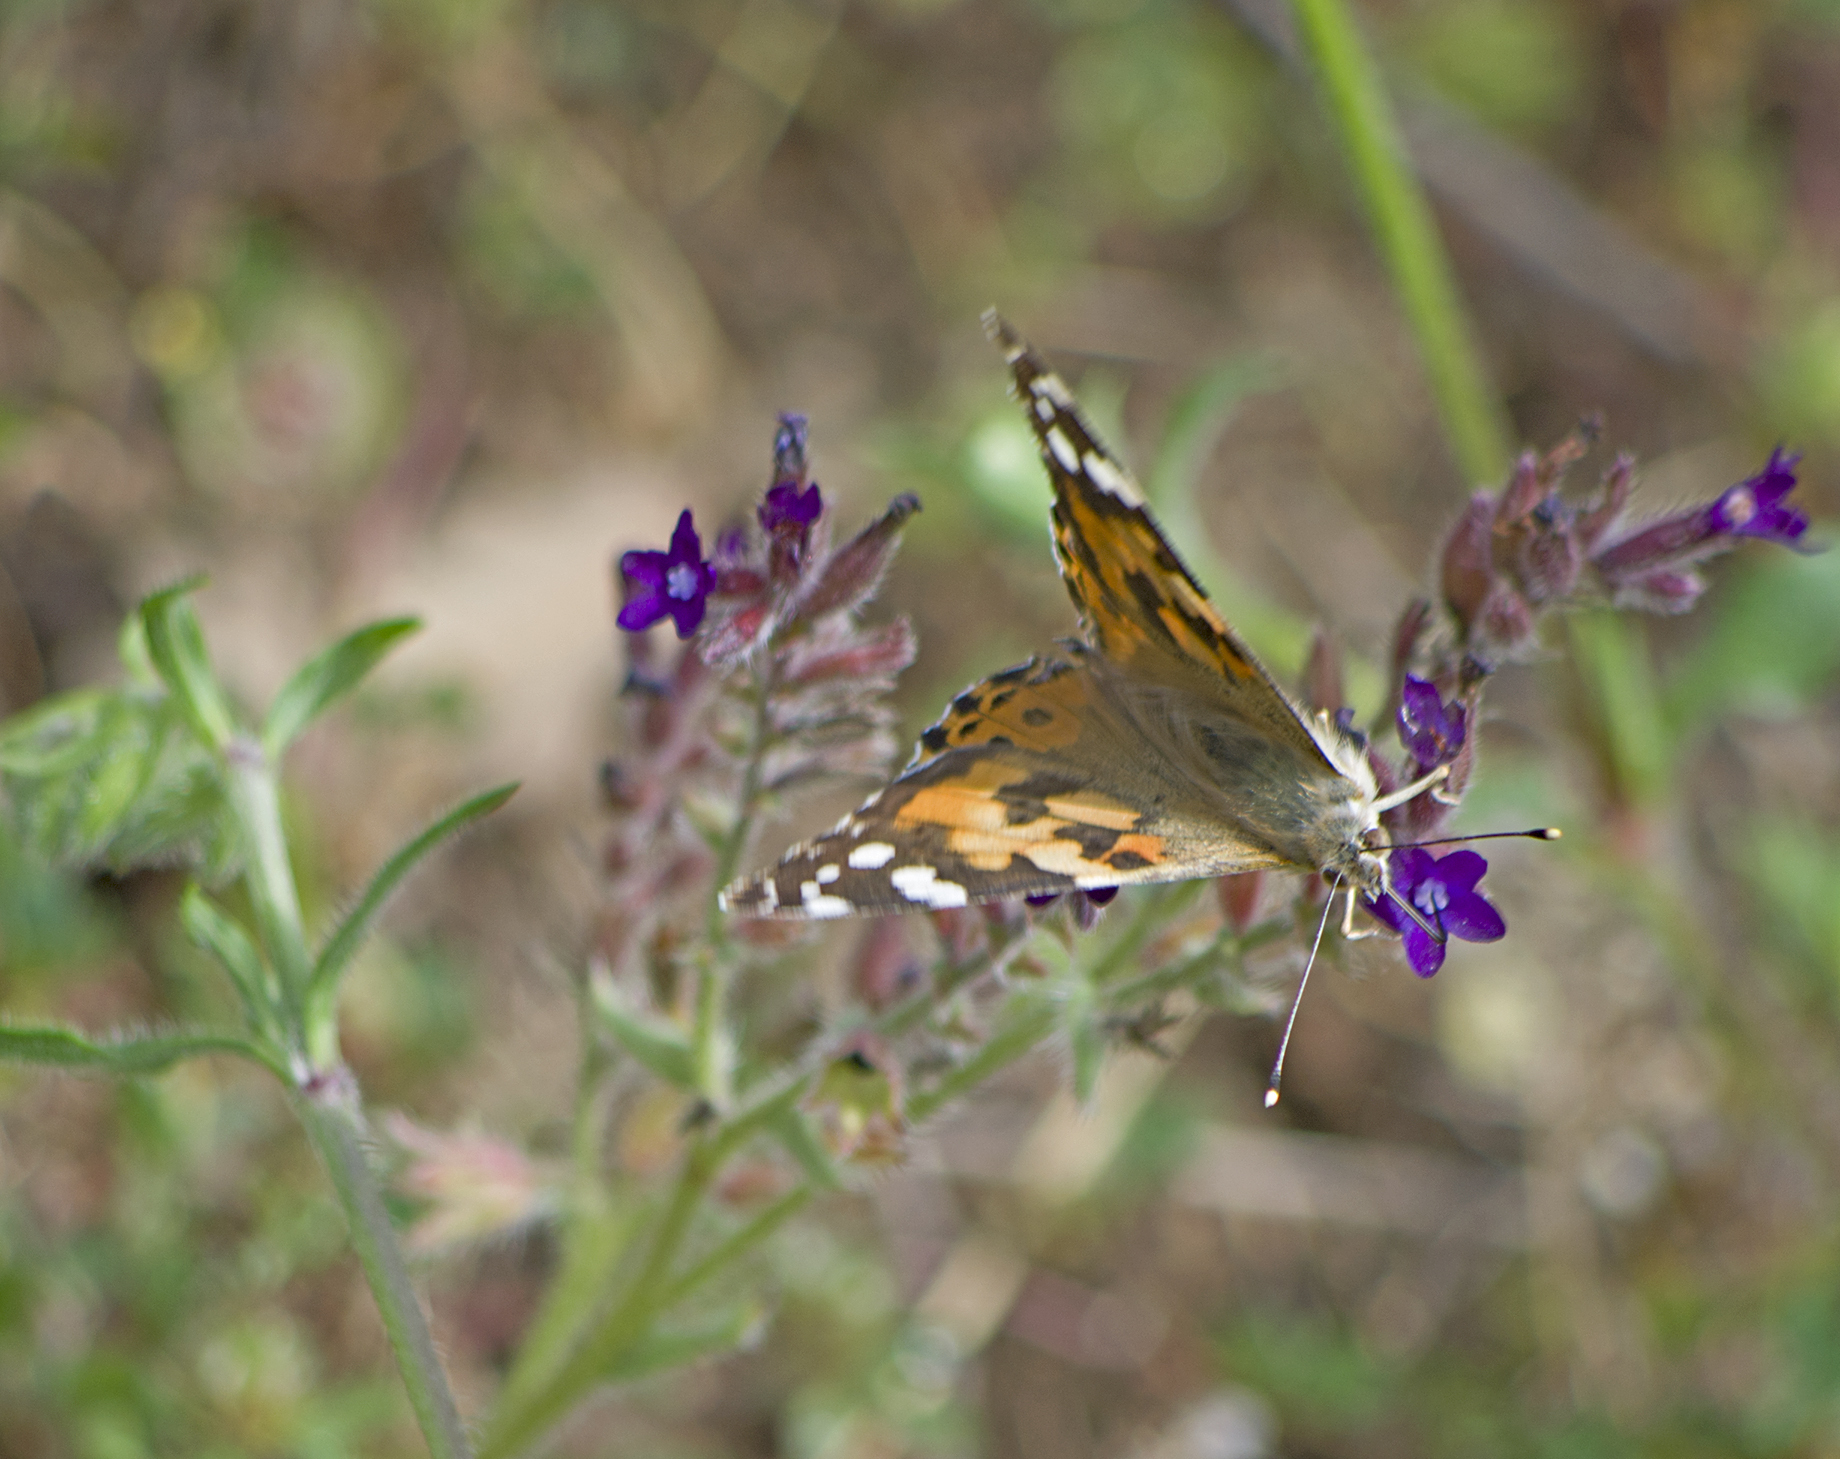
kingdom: Animalia
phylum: Arthropoda
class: Insecta
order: Lepidoptera
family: Nymphalidae
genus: Vanessa
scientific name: Vanessa cardui
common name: Painted lady
